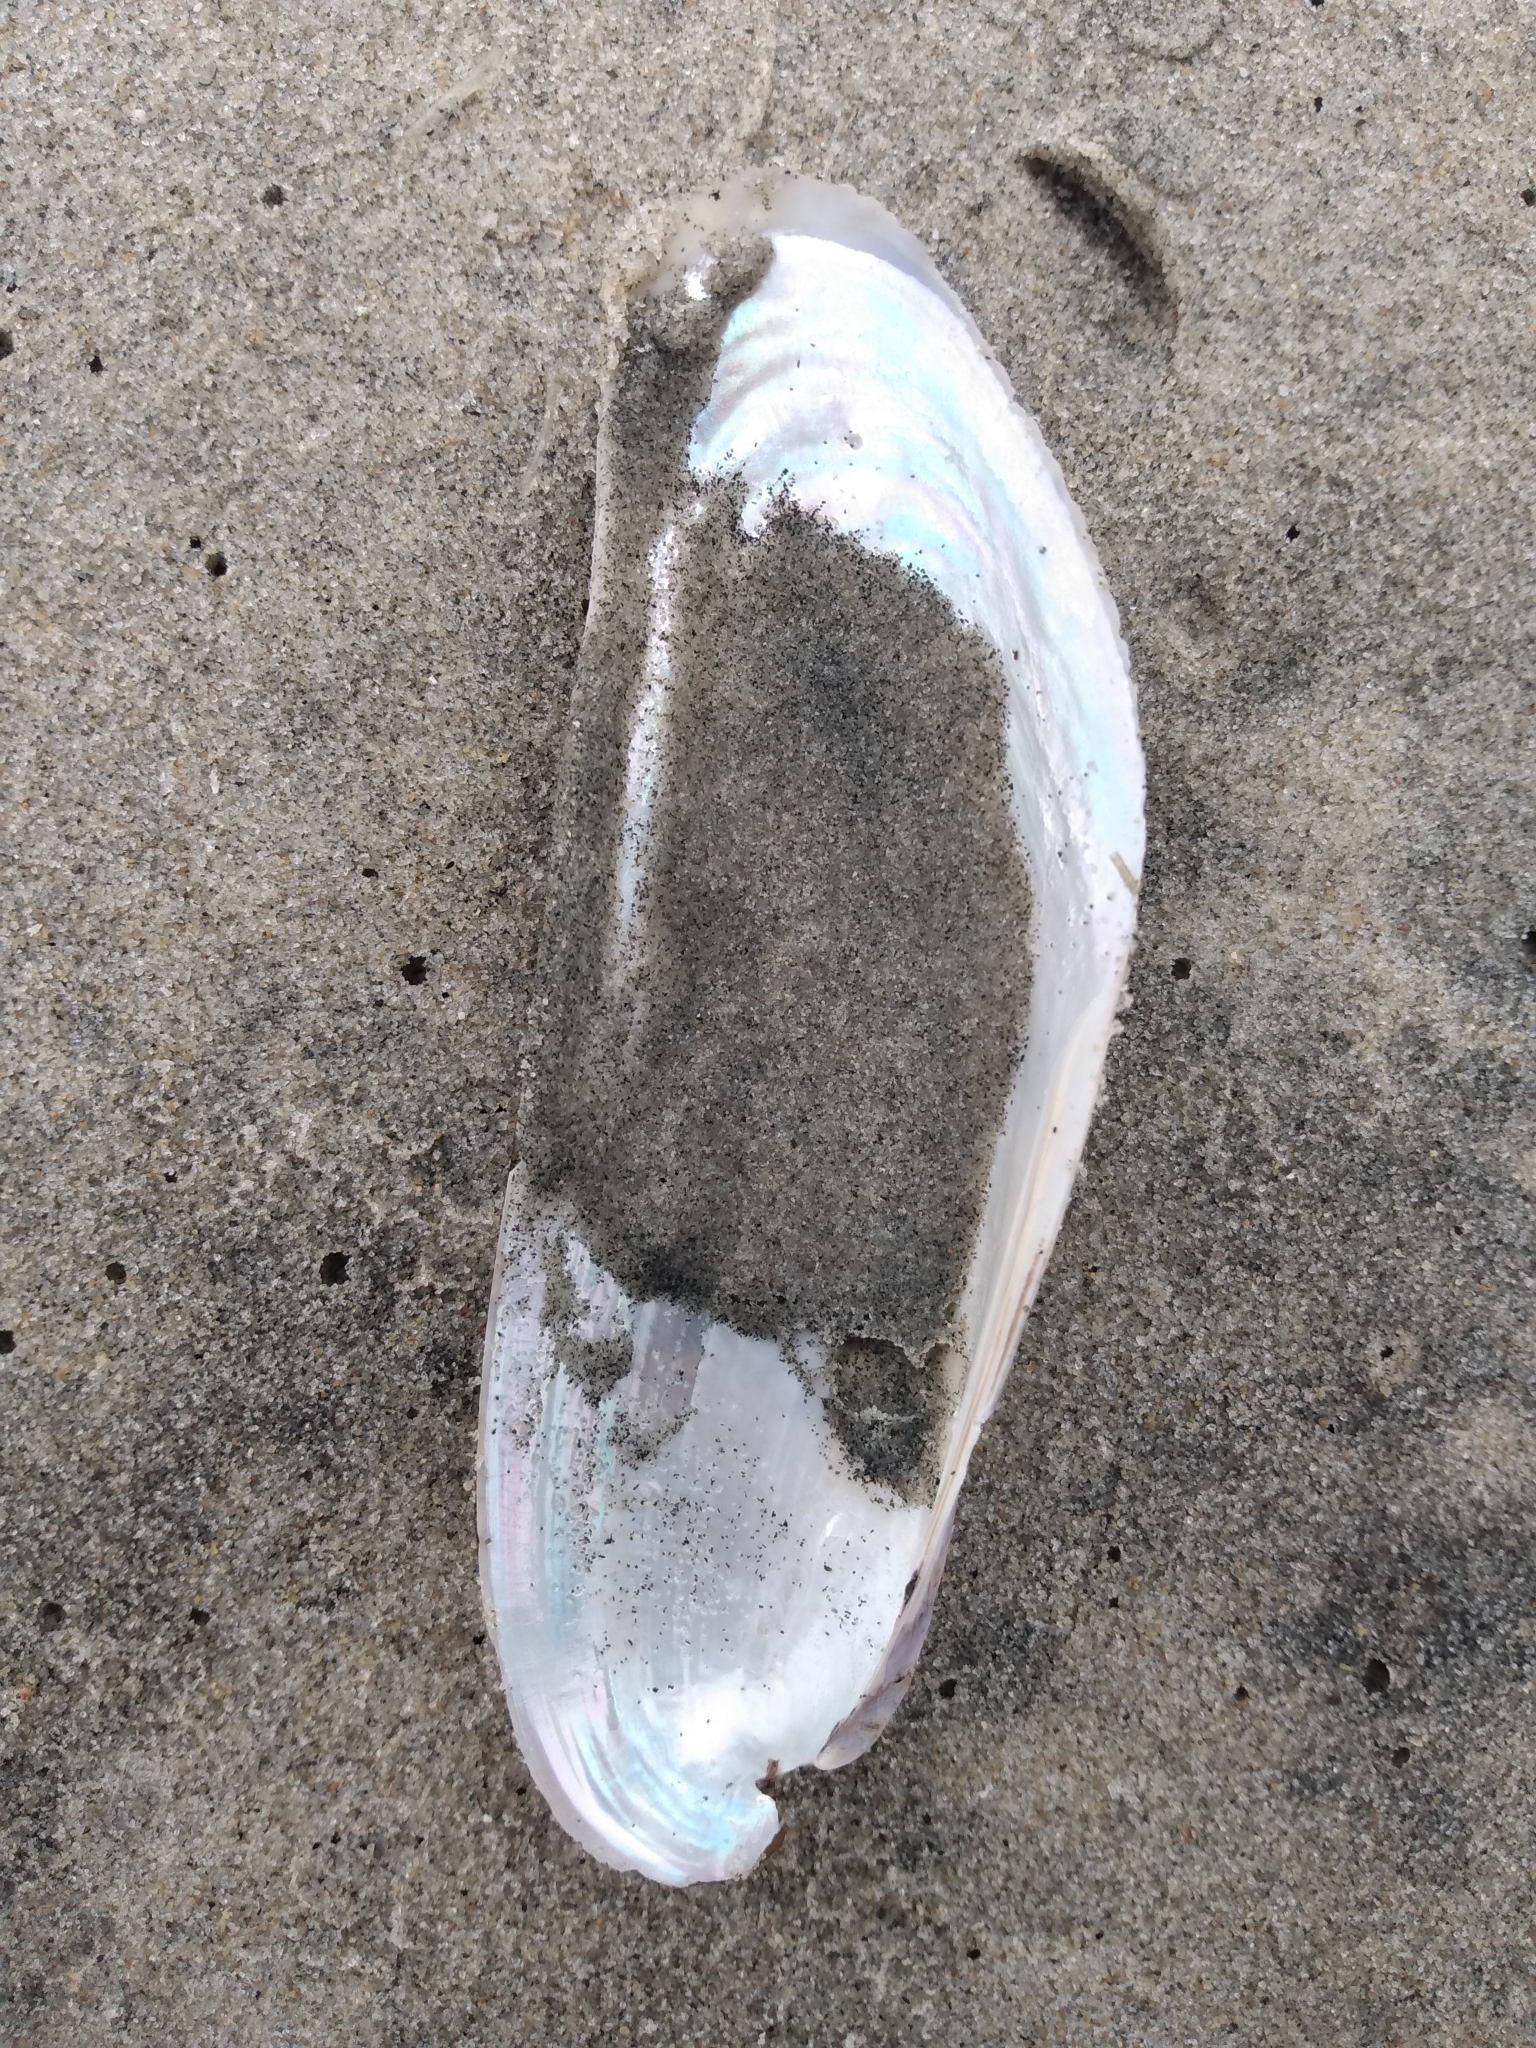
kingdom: Animalia
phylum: Mollusca
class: Bivalvia
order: Mytilida
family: Mytilidae
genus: Modiolatus
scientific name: Modiolatus neglectus
